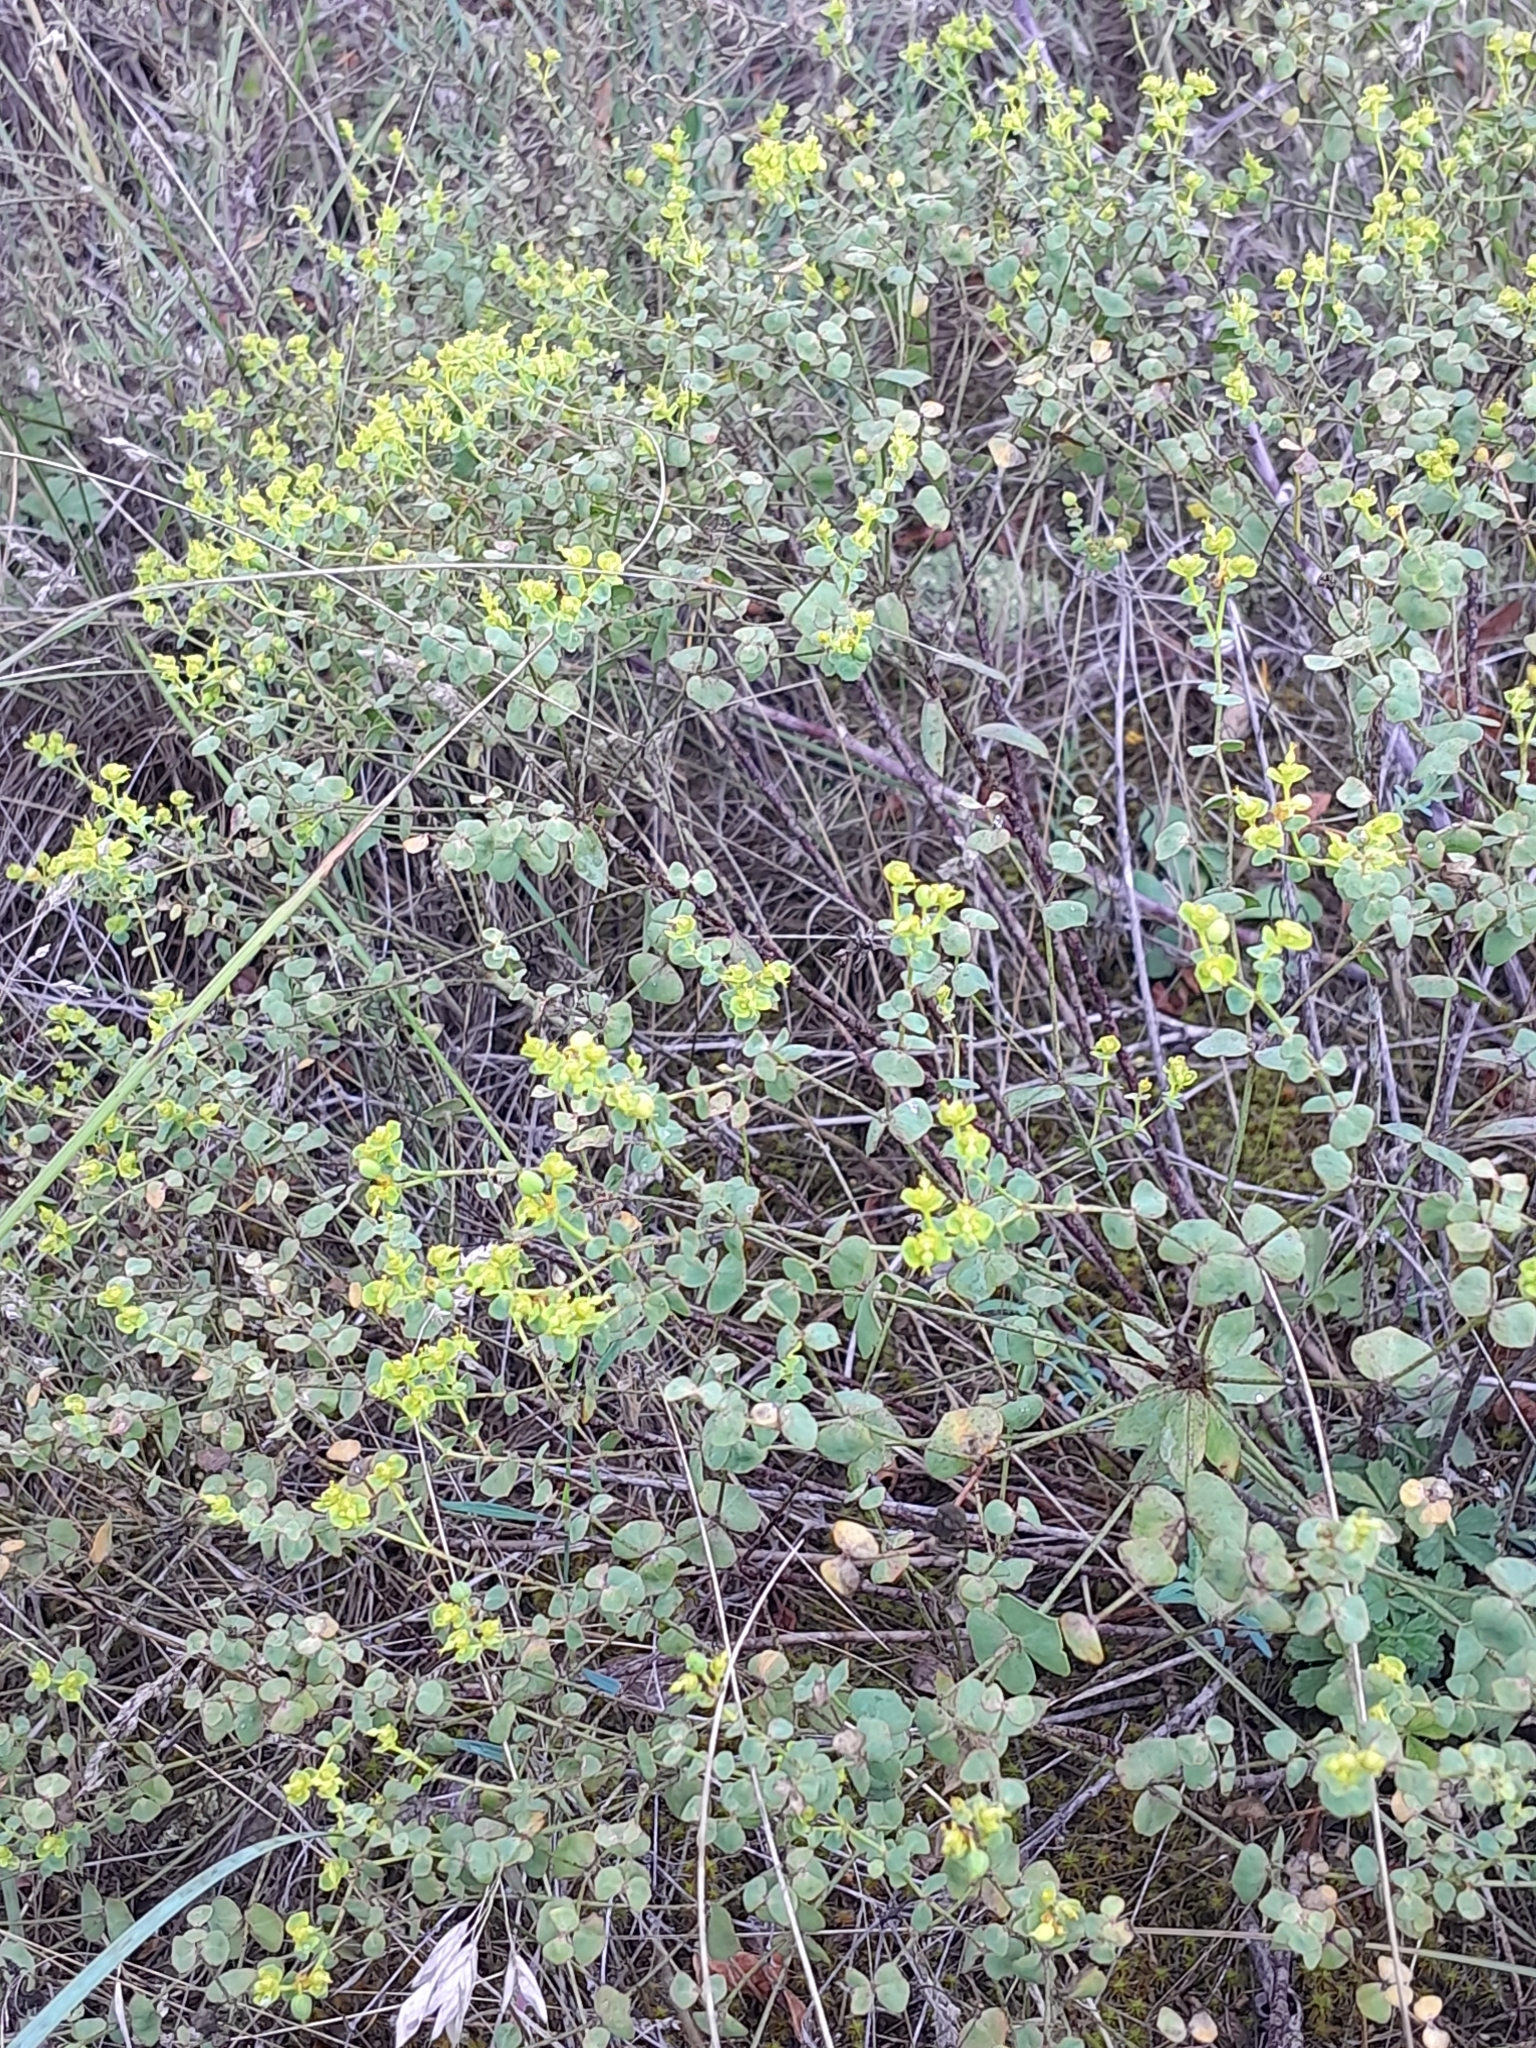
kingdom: Plantae
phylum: Tracheophyta
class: Magnoliopsida
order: Malpighiales
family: Euphorbiaceae
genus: Euphorbia
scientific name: Euphorbia seguieriana
